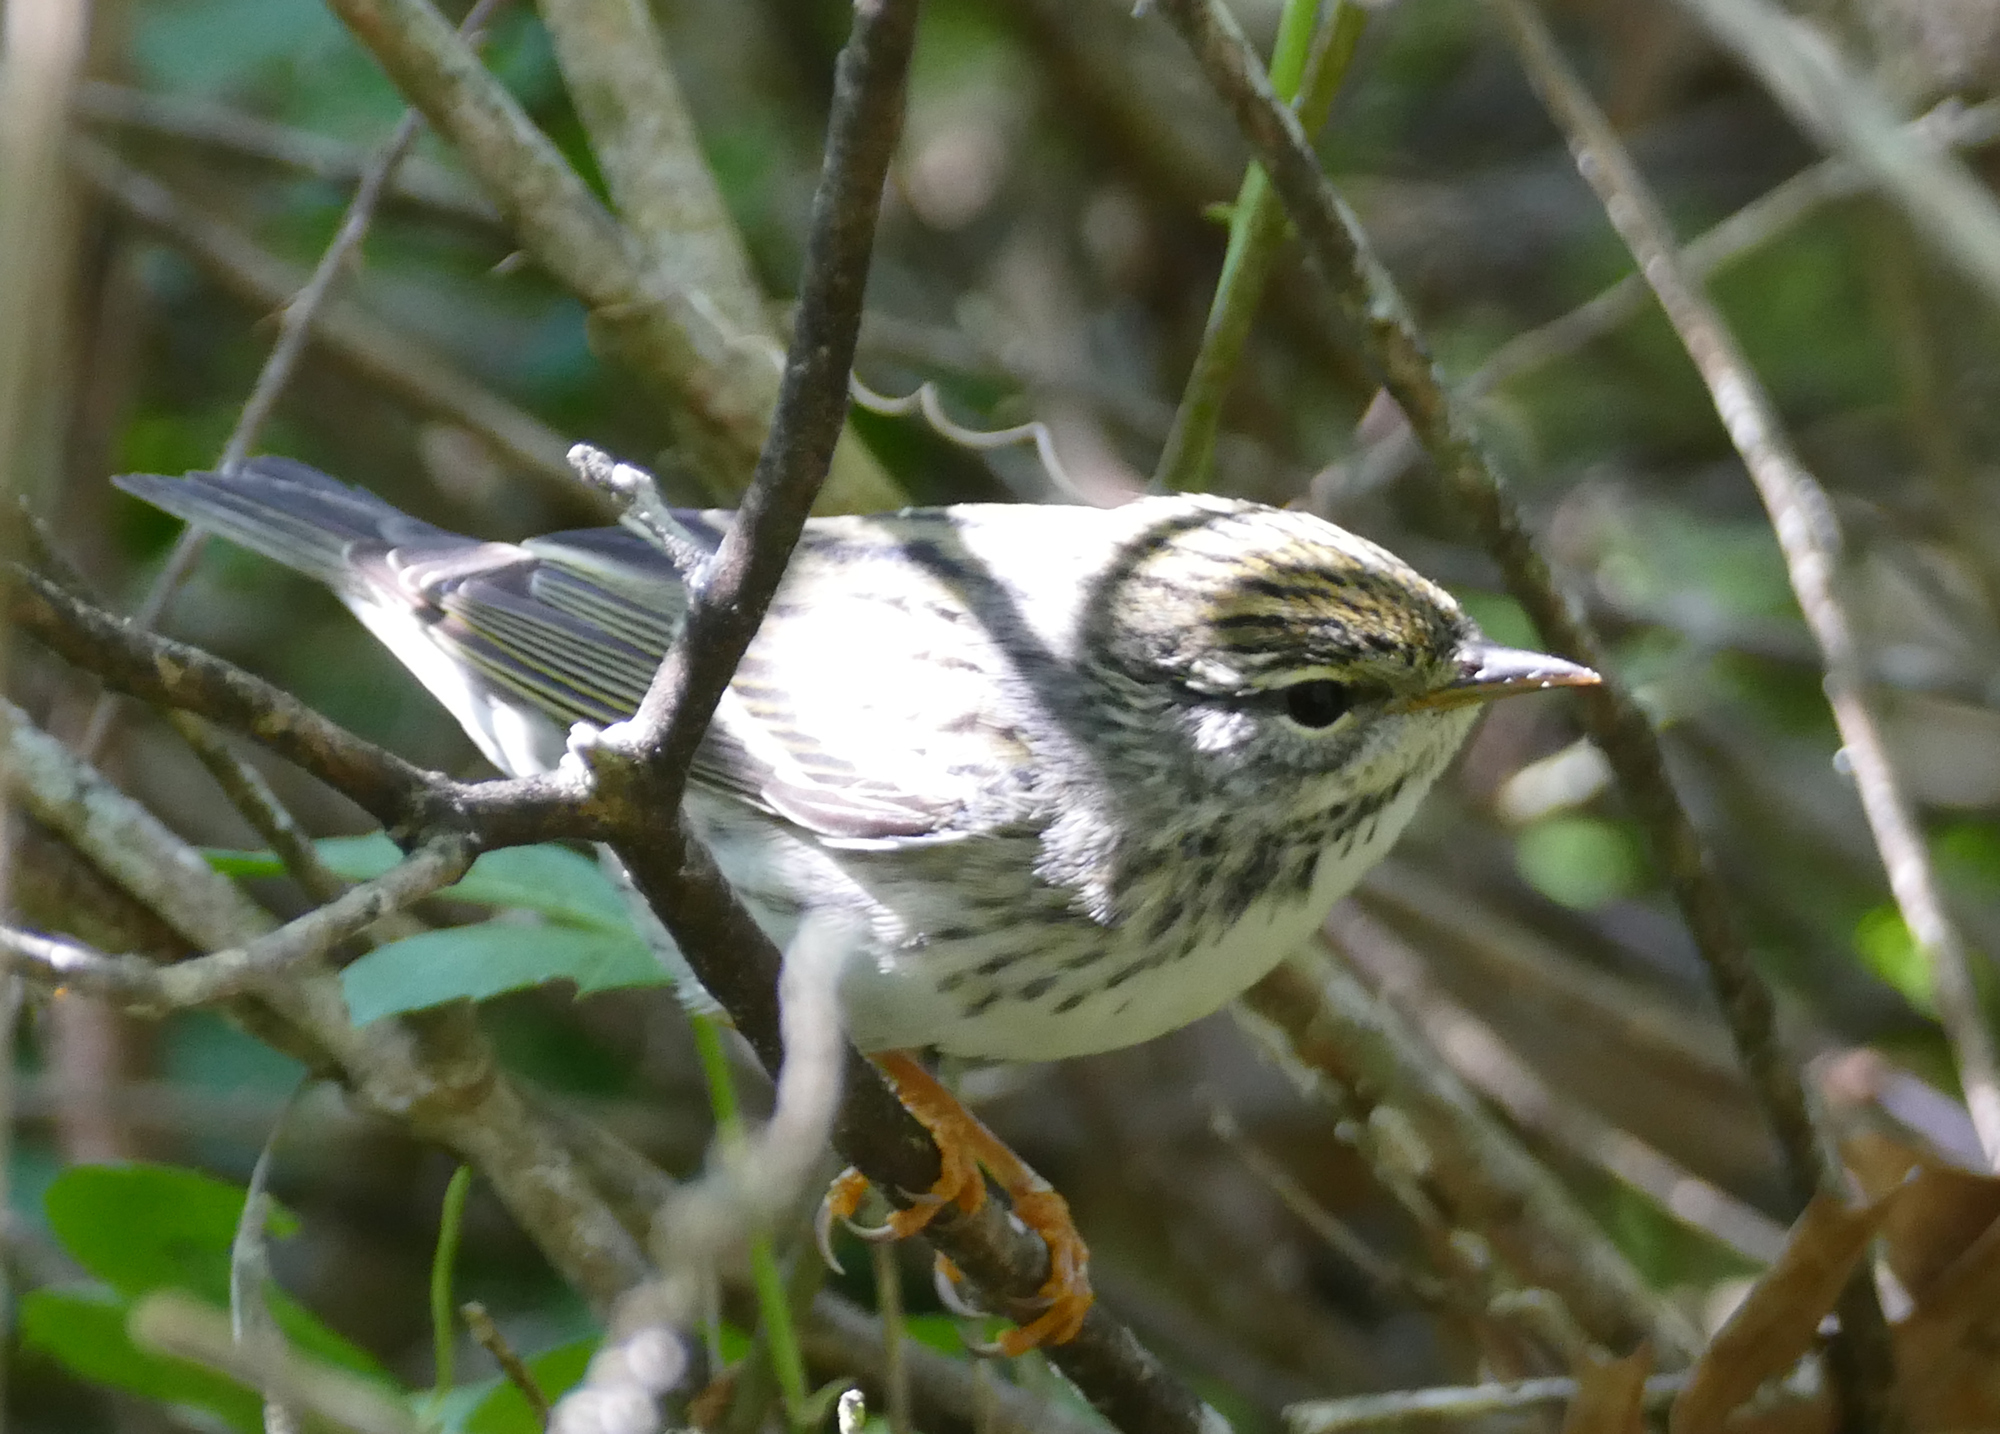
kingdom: Animalia
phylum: Chordata
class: Aves
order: Passeriformes
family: Parulidae
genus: Setophaga
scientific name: Setophaga striata
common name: Blackpoll warbler
